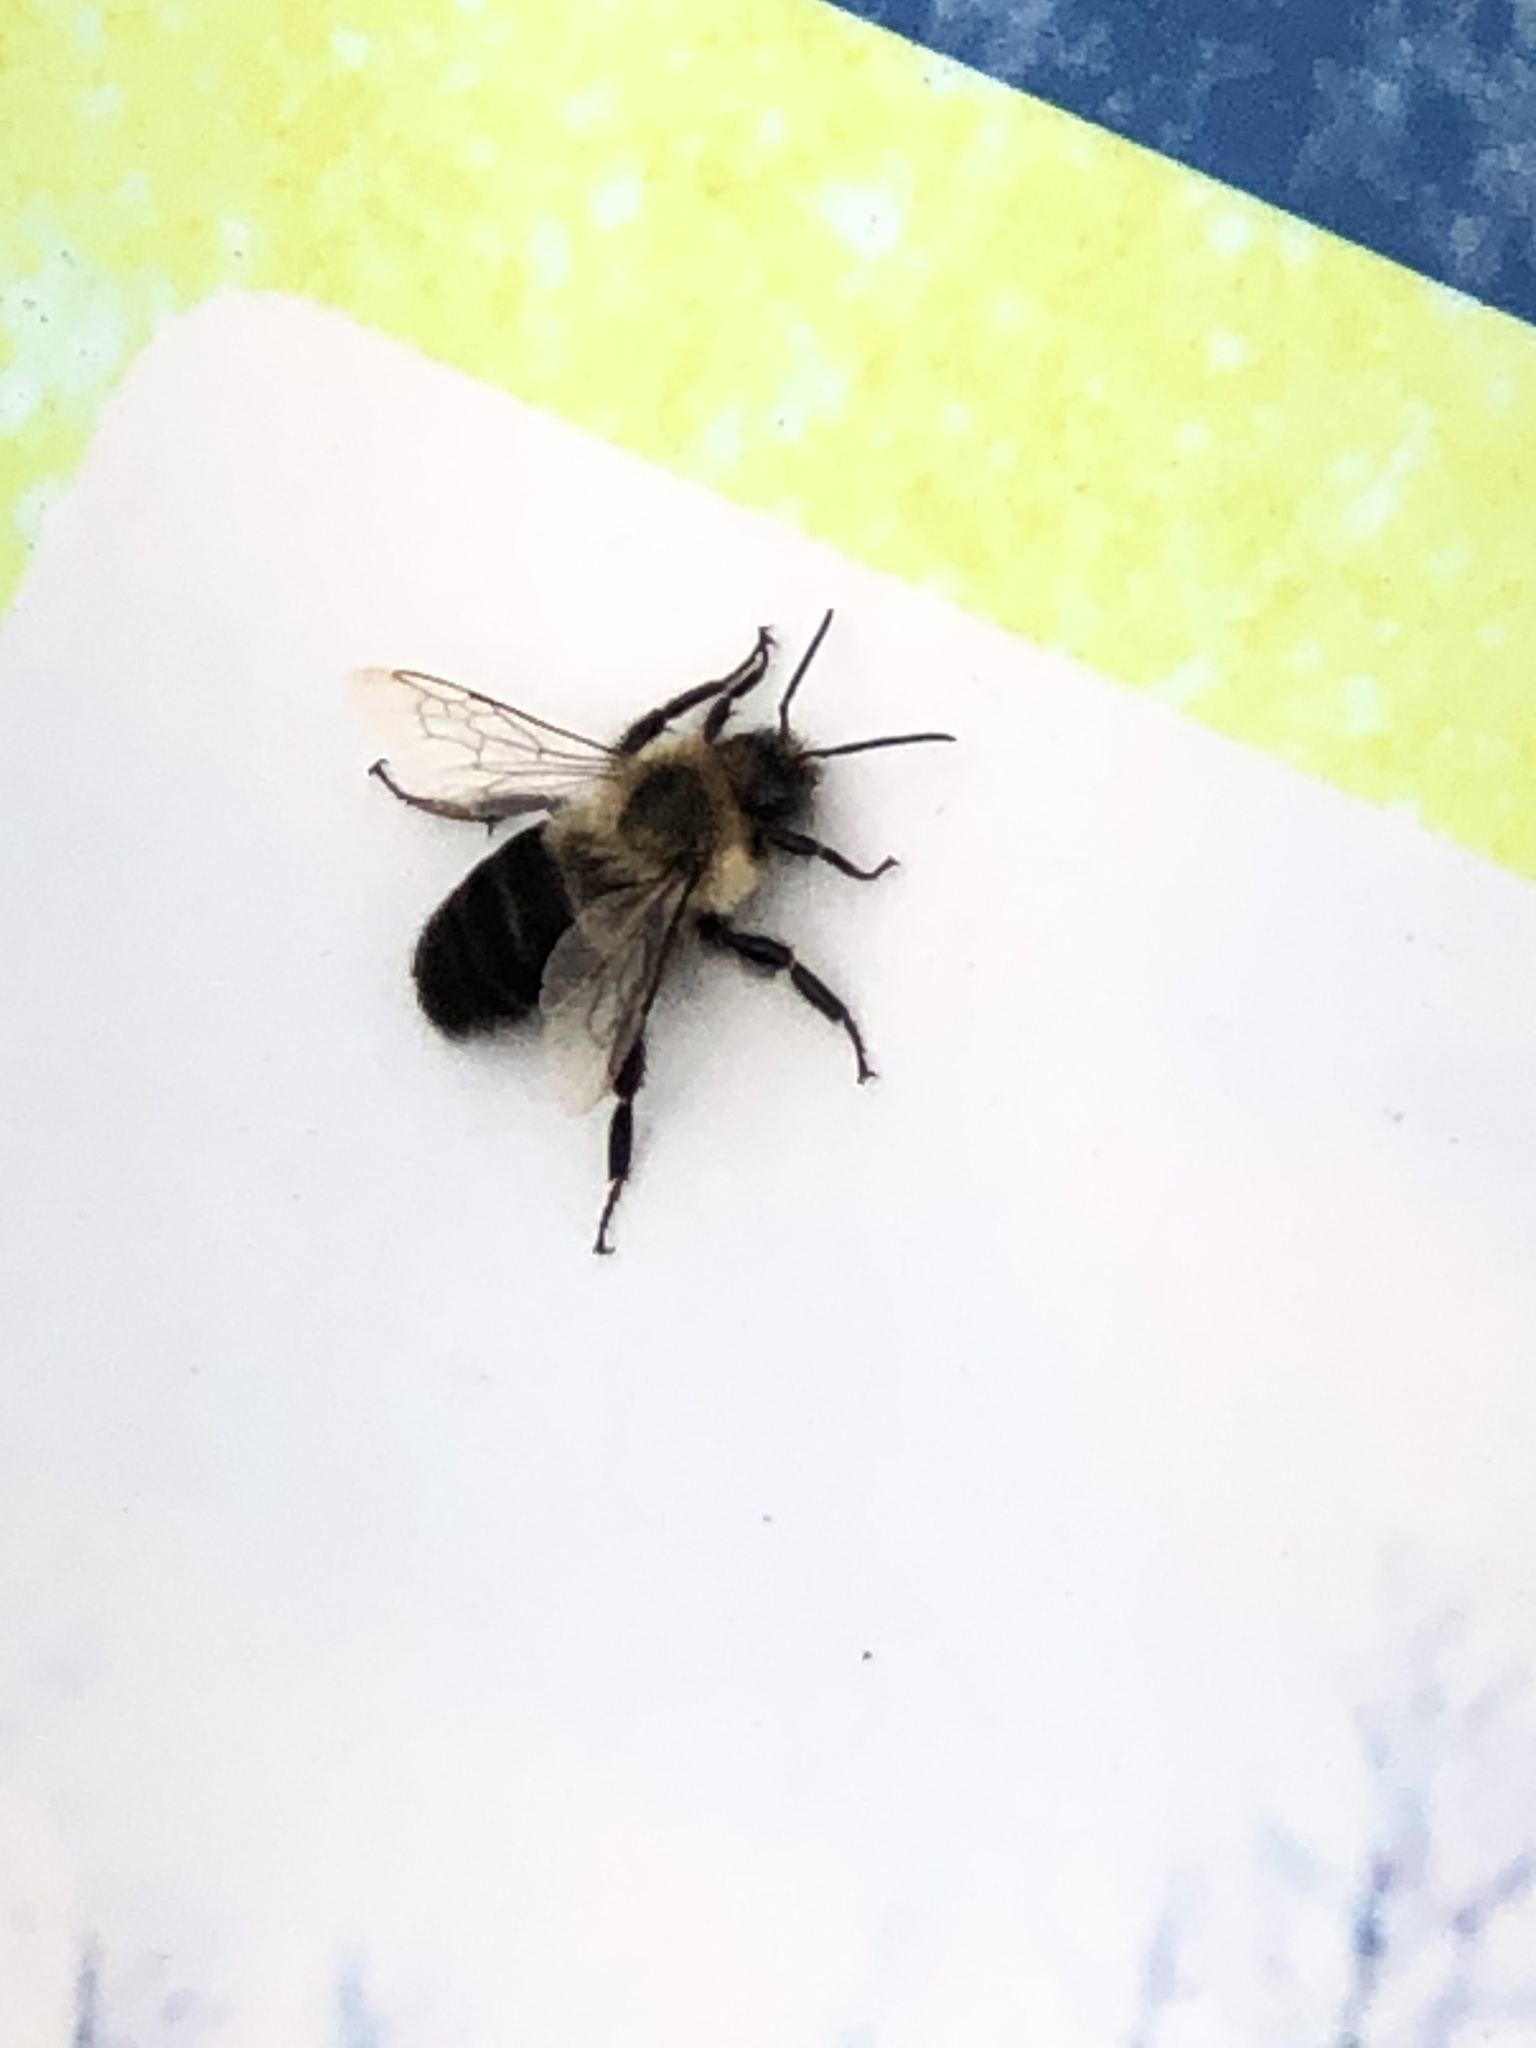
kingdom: Animalia
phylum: Arthropoda
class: Insecta
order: Hymenoptera
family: Apidae
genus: Bombus
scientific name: Bombus impatiens
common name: Common eastern bumble bee
